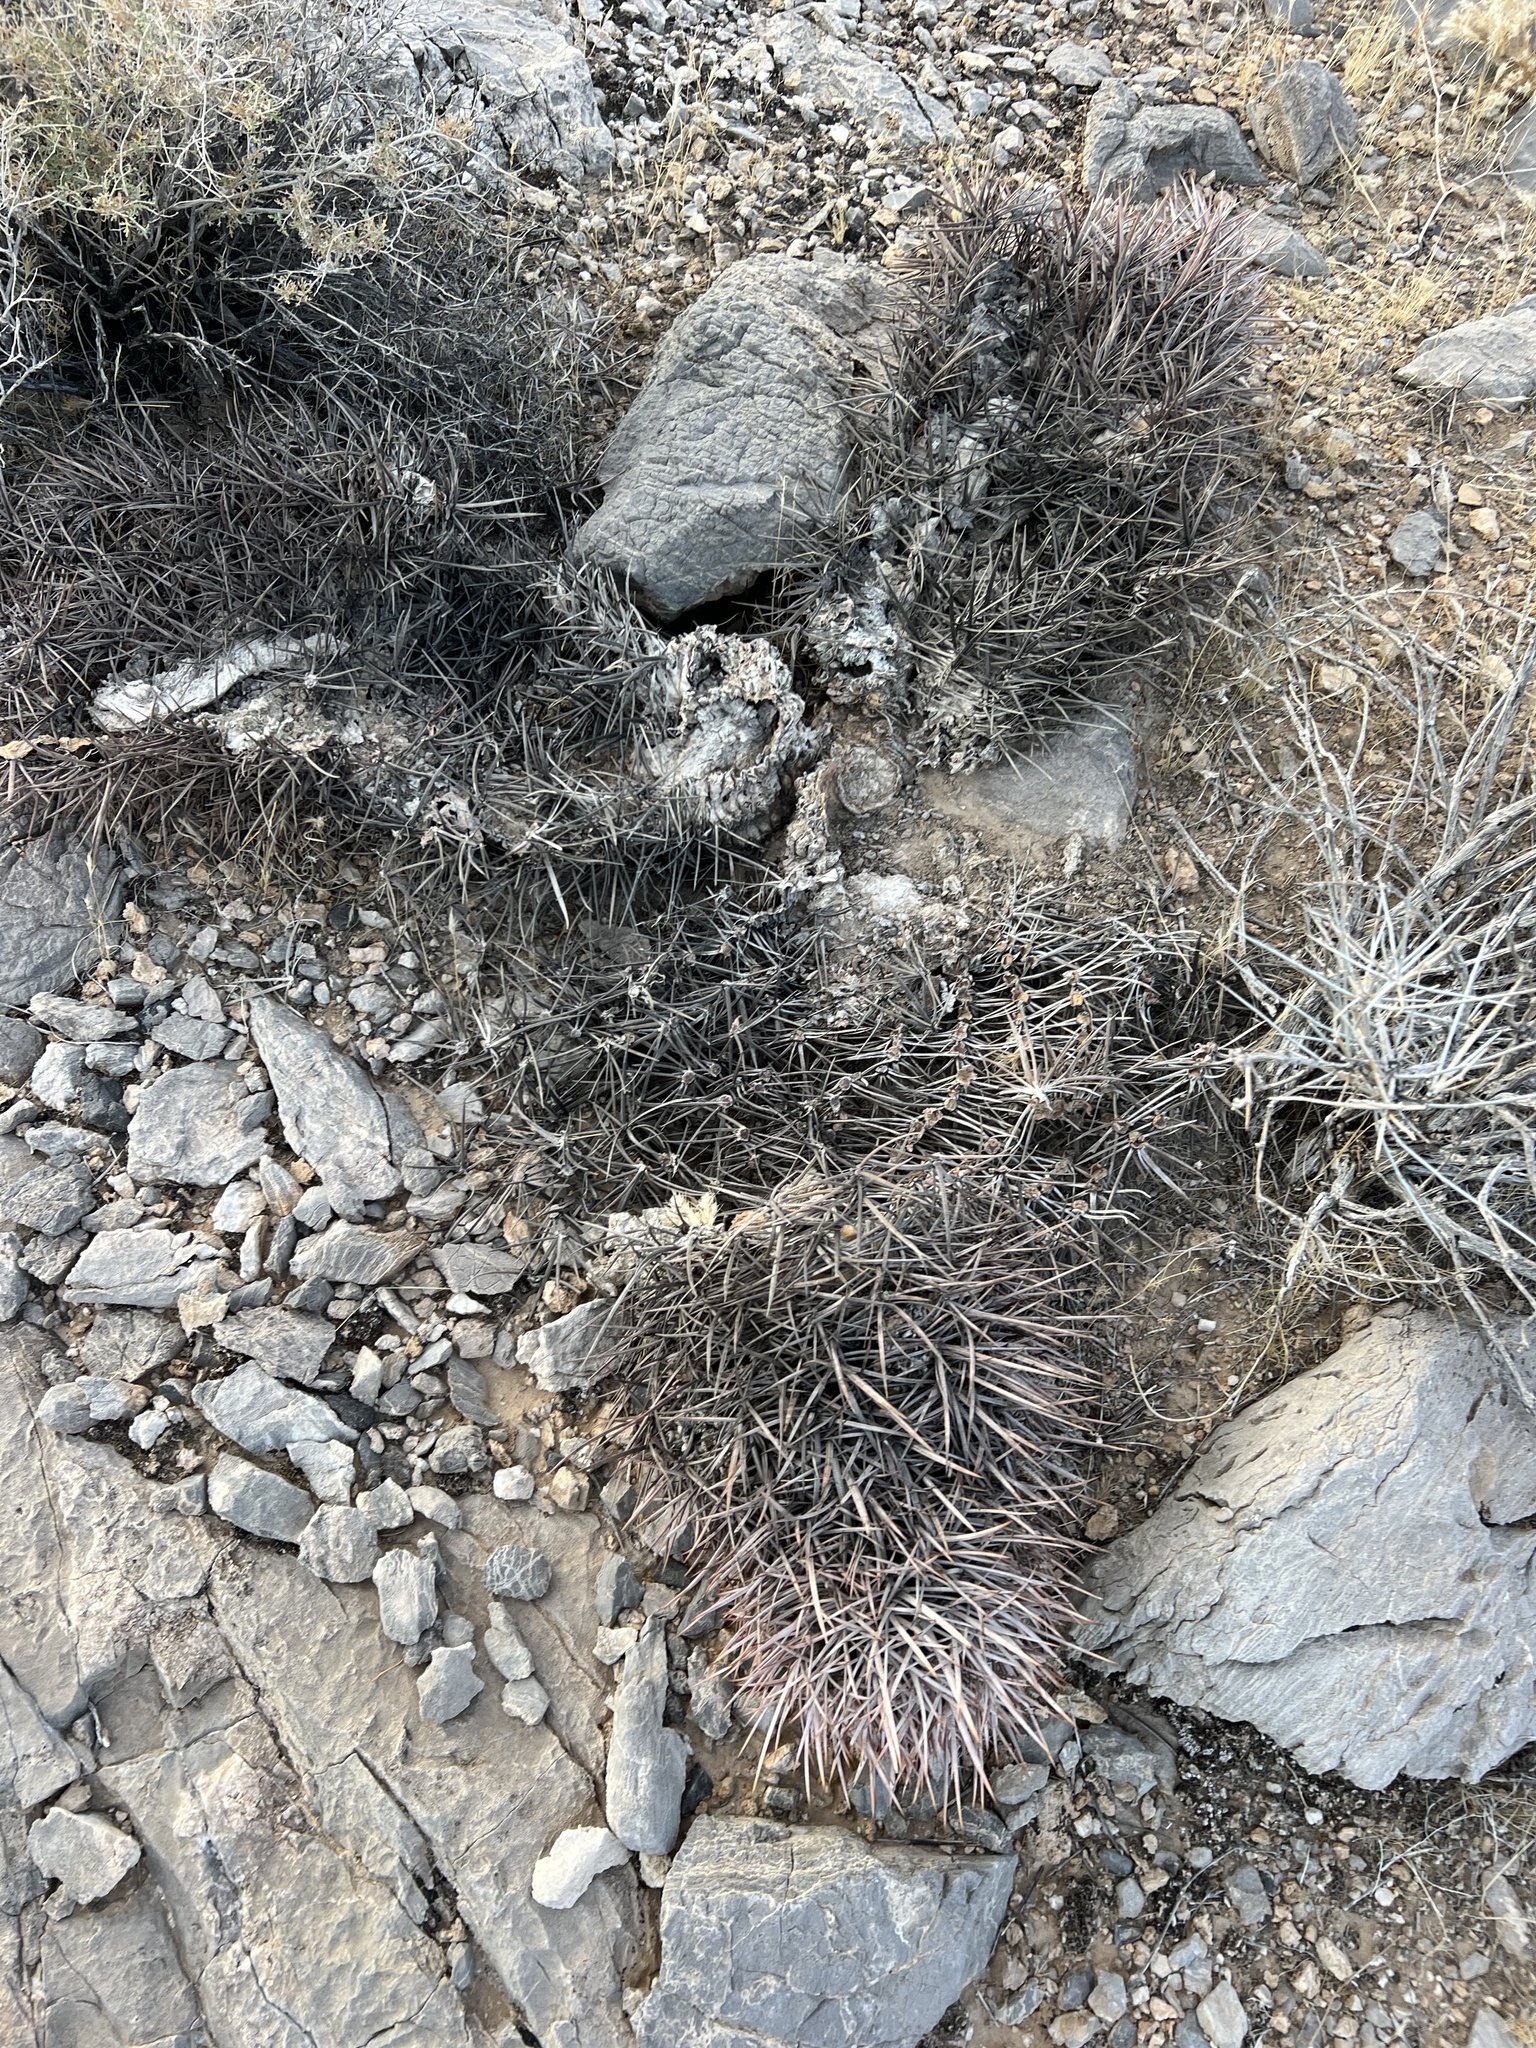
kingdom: Plantae
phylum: Tracheophyta
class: Magnoliopsida
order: Caryophyllales
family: Cactaceae
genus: Ferocactus
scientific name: Ferocactus cylindraceus
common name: California barrel cactus
